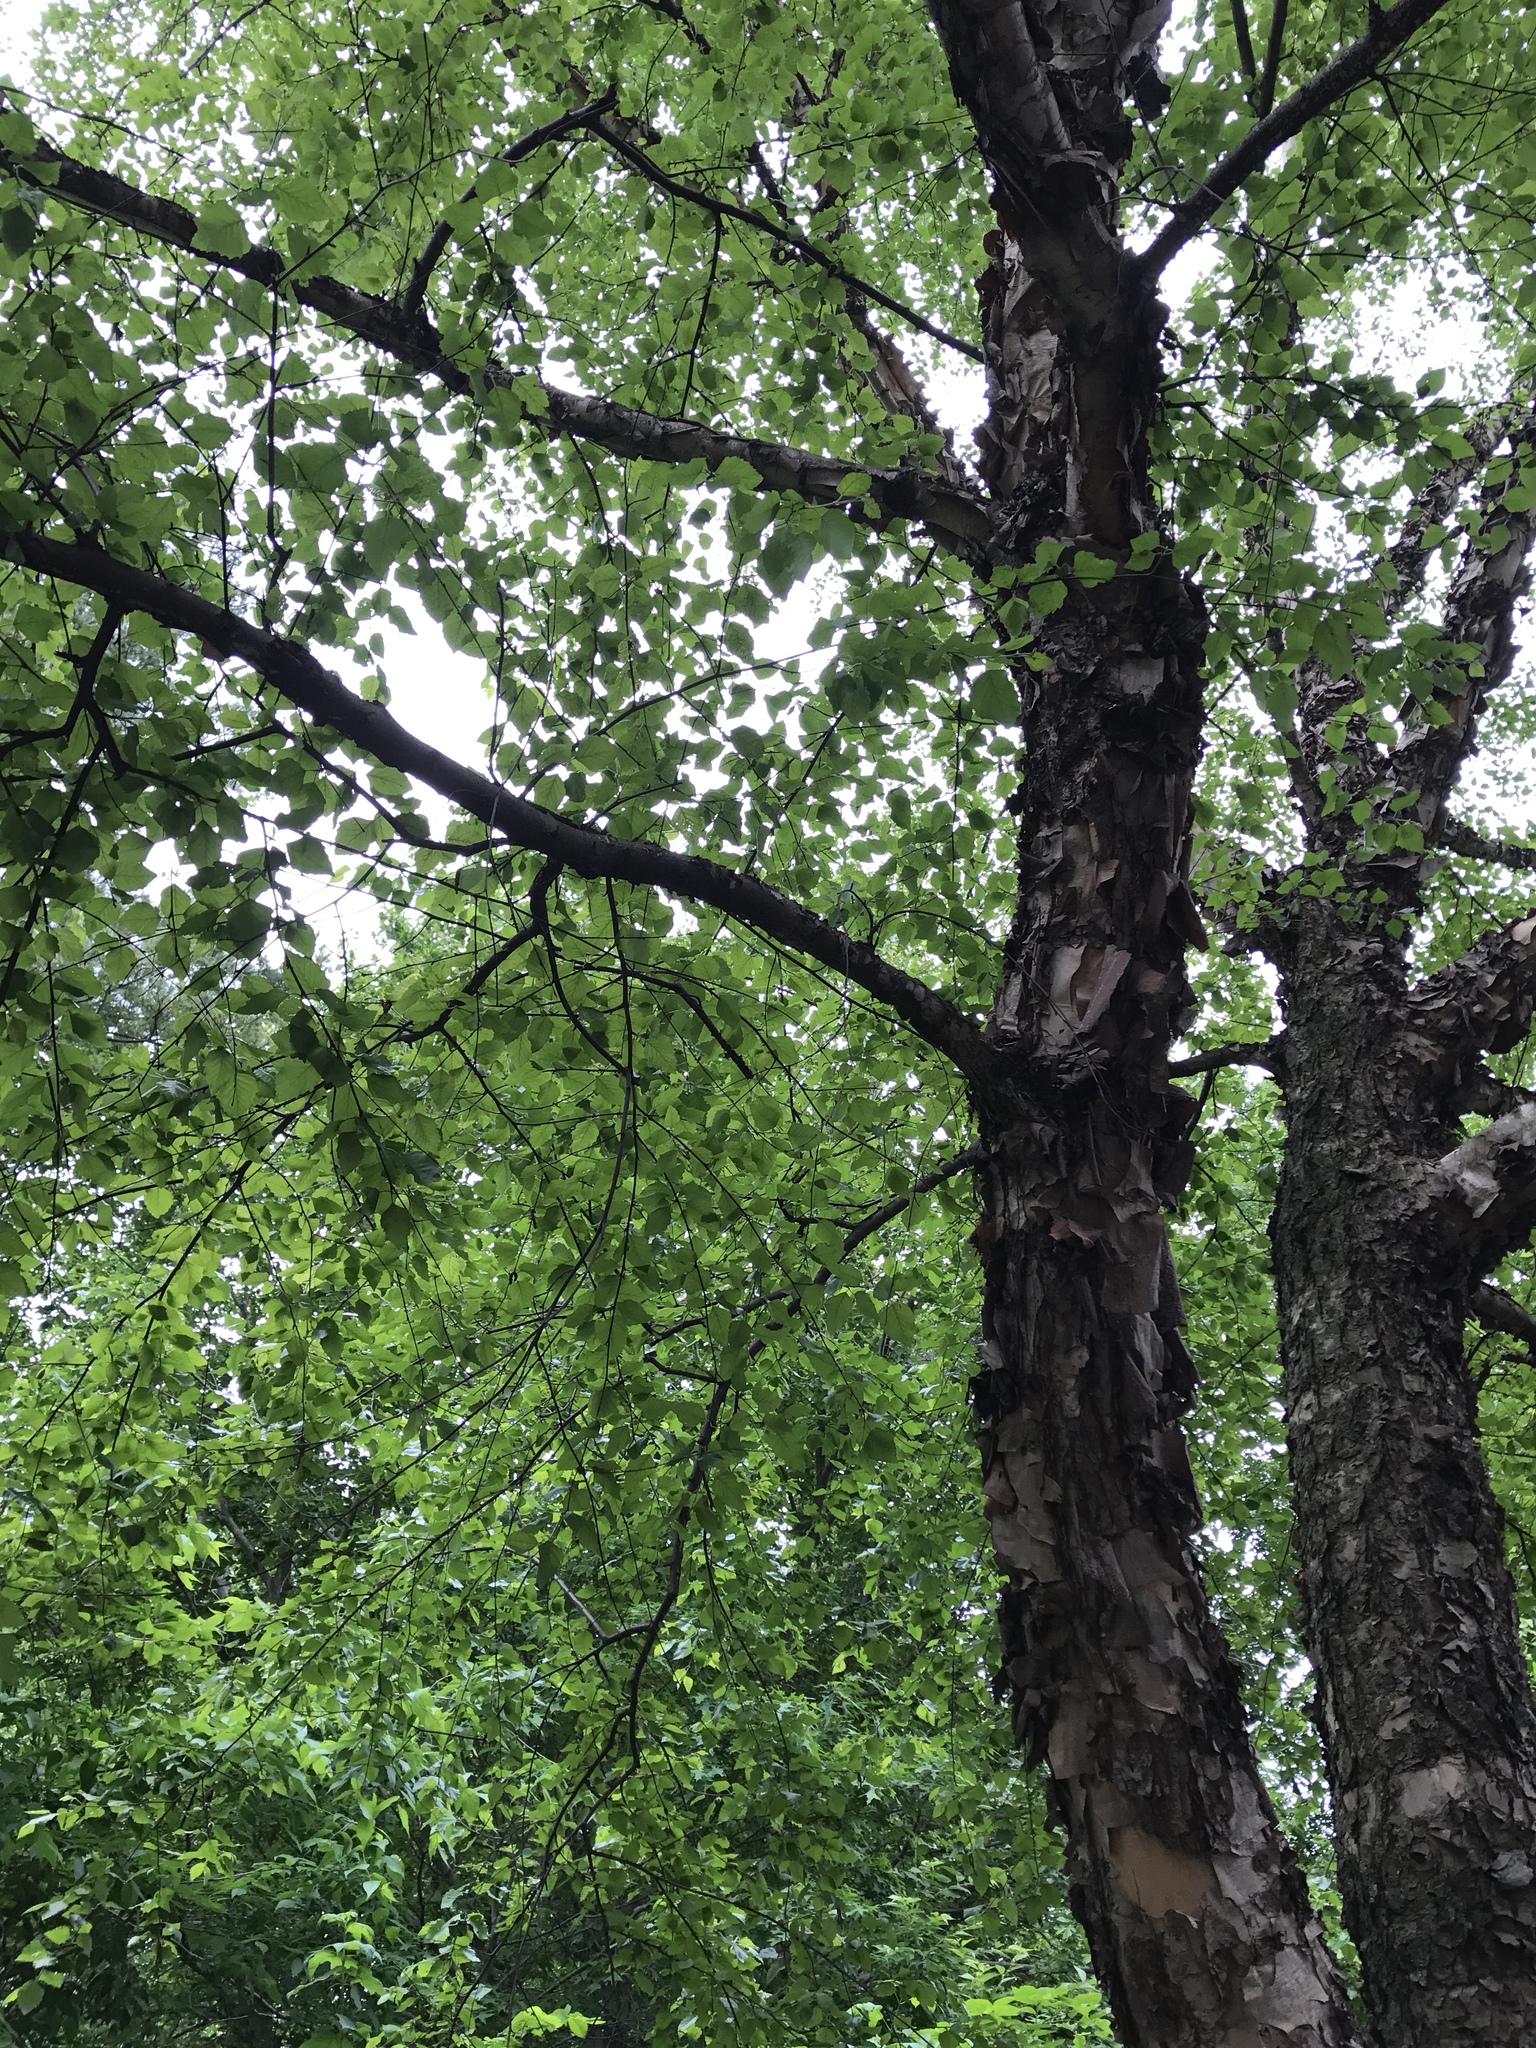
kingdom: Plantae
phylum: Tracheophyta
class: Magnoliopsida
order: Fagales
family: Betulaceae
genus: Betula
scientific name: Betula nigra
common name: Black birch
